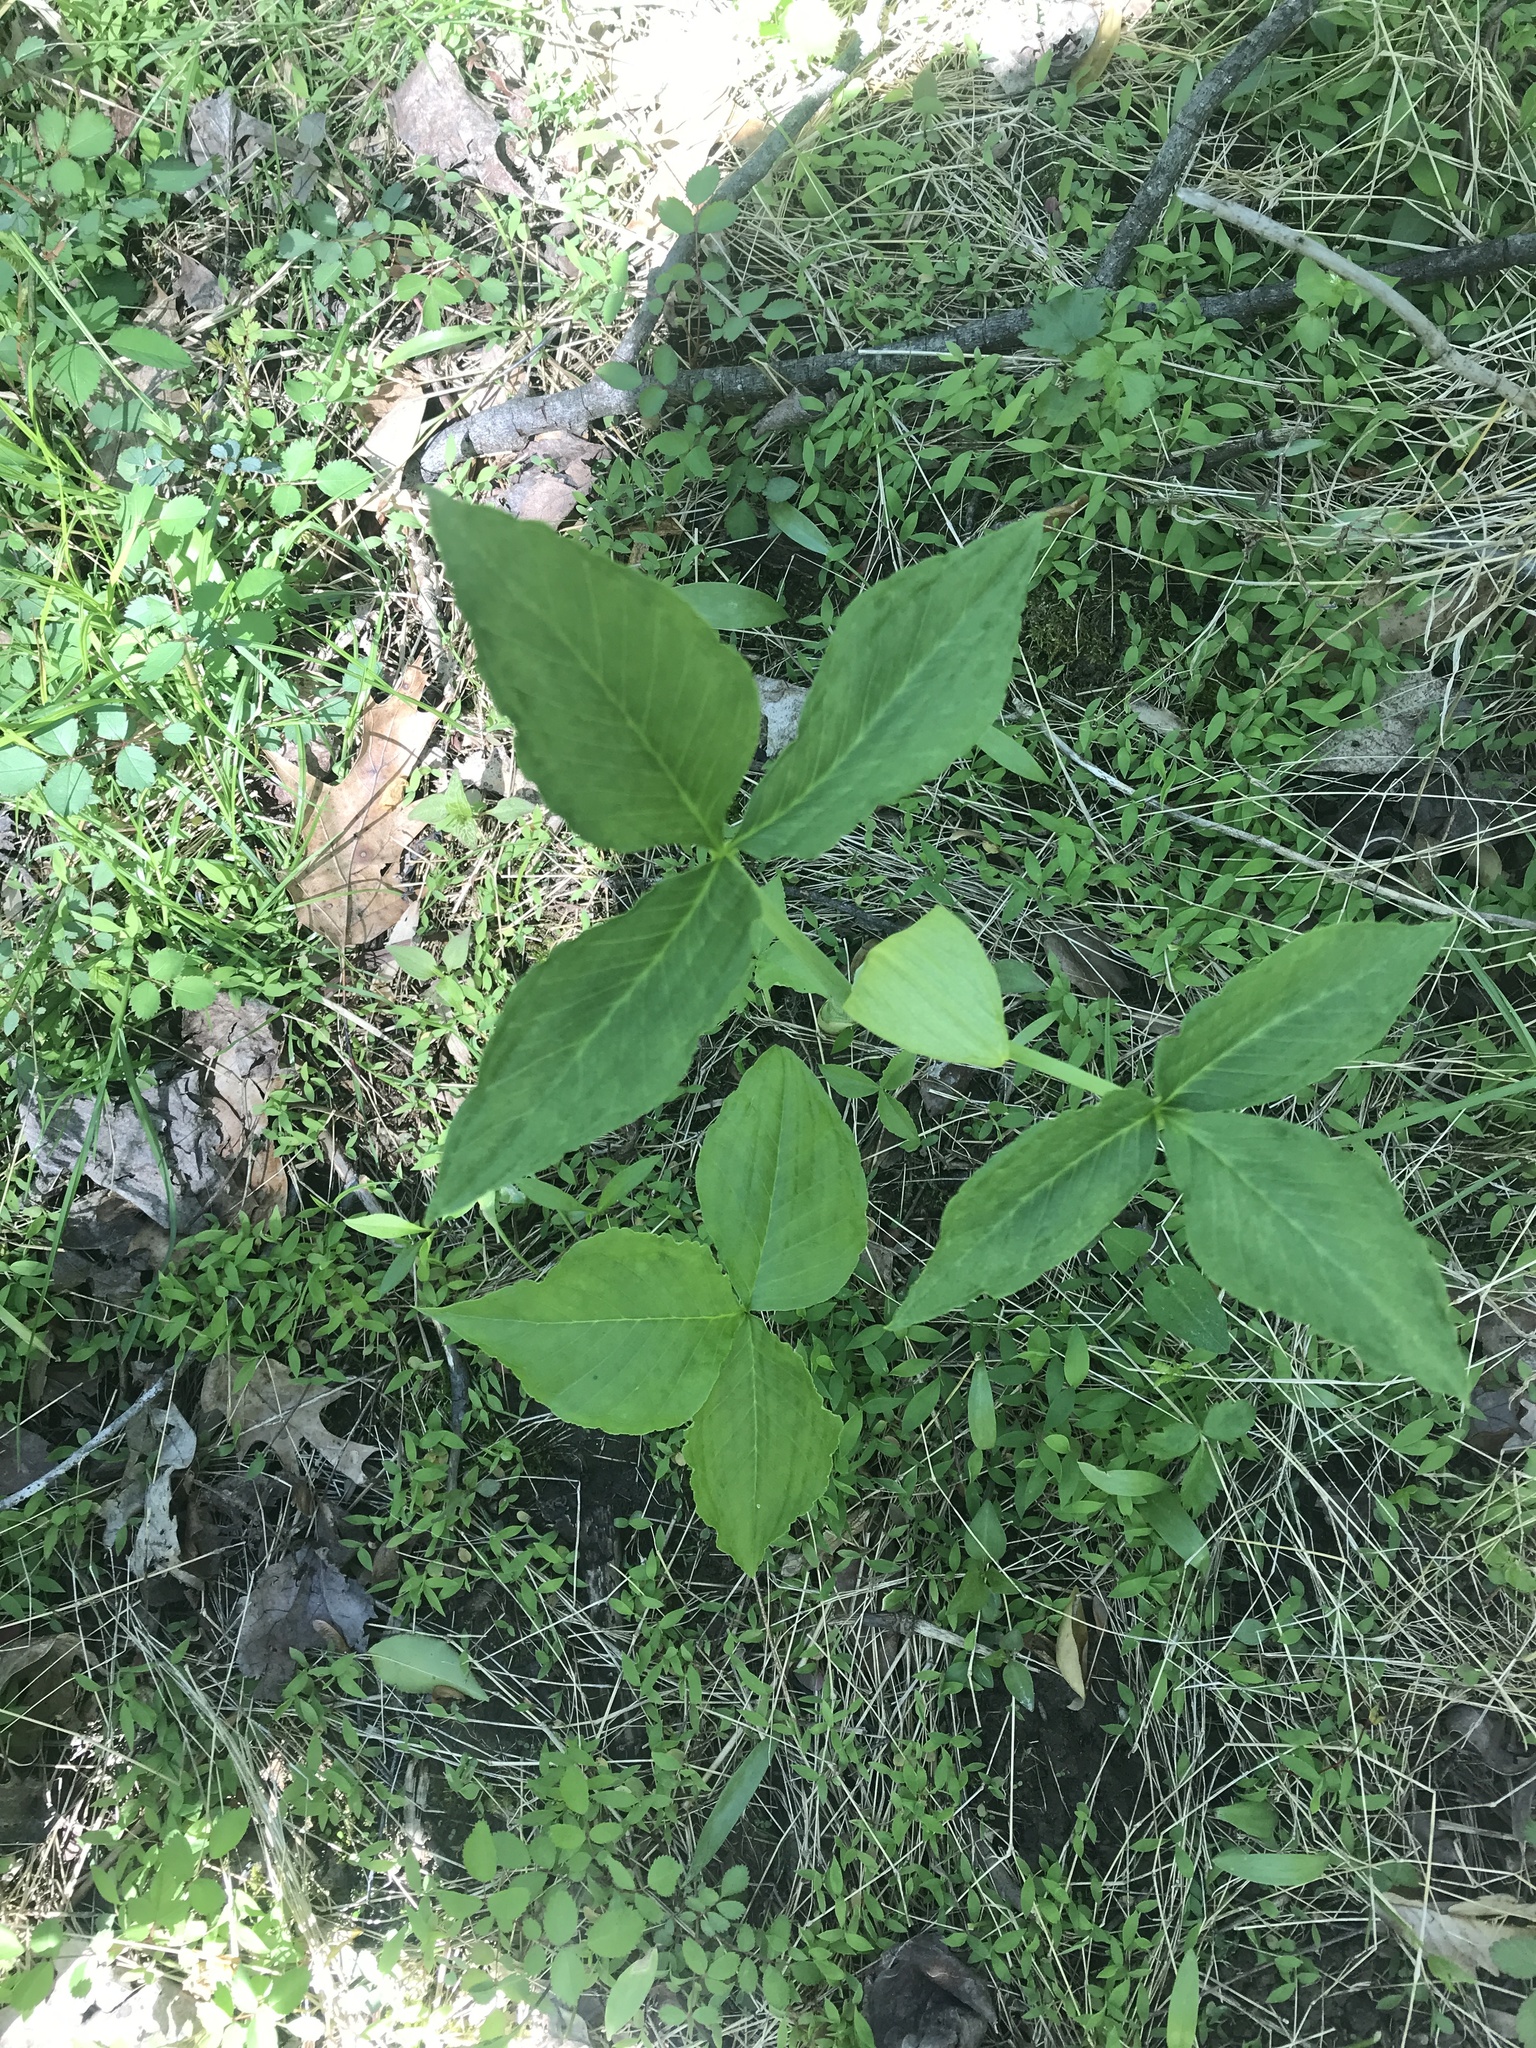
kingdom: Plantae
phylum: Tracheophyta
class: Liliopsida
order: Alismatales
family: Araceae
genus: Arisaema
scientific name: Arisaema triphyllum
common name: Jack-in-the-pulpit
